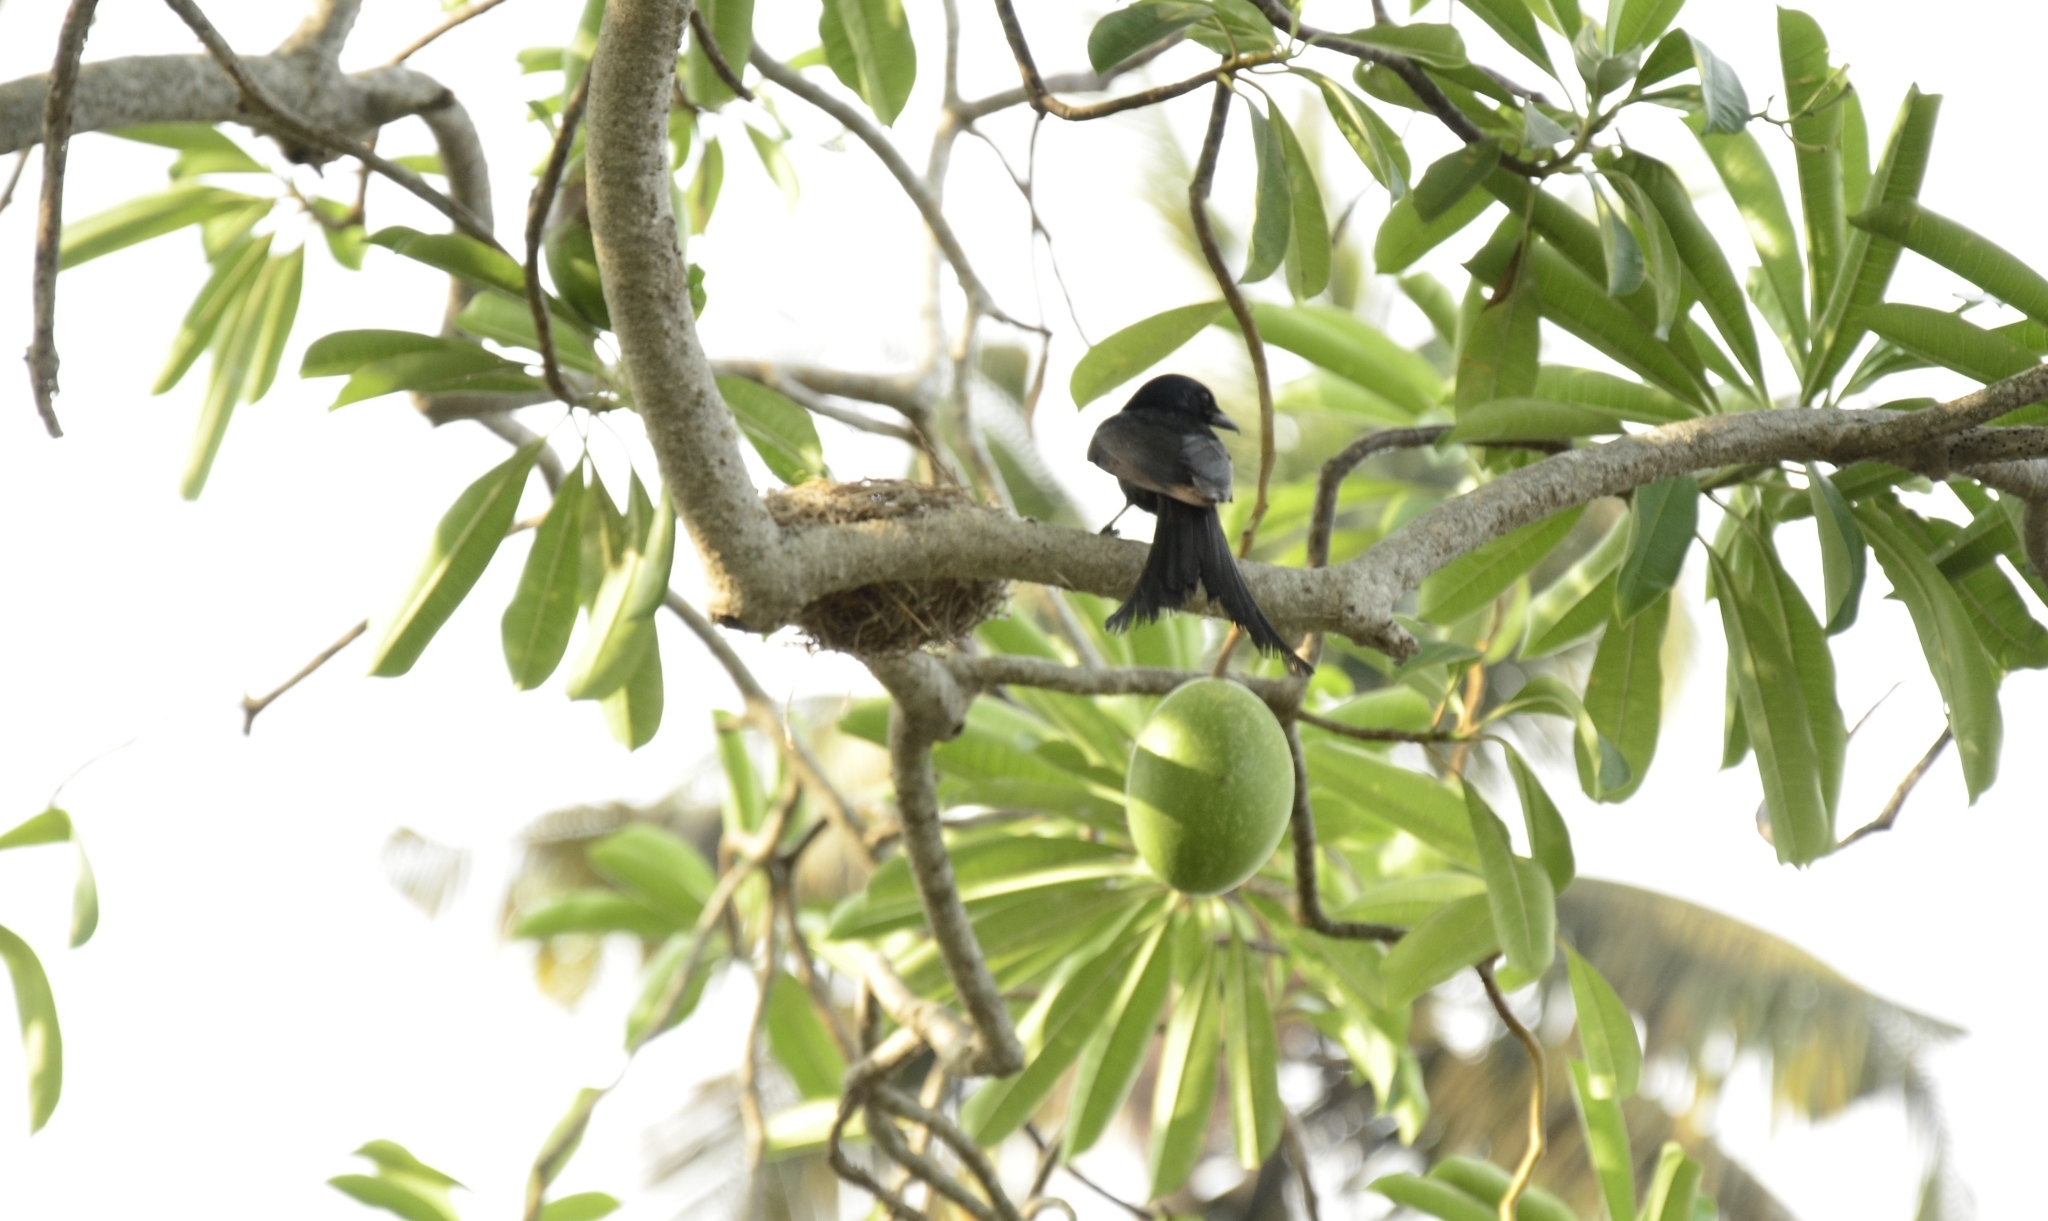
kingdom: Animalia
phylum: Chordata
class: Aves
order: Passeriformes
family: Dicruridae
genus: Dicrurus
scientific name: Dicrurus macrocercus
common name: Black drongo
